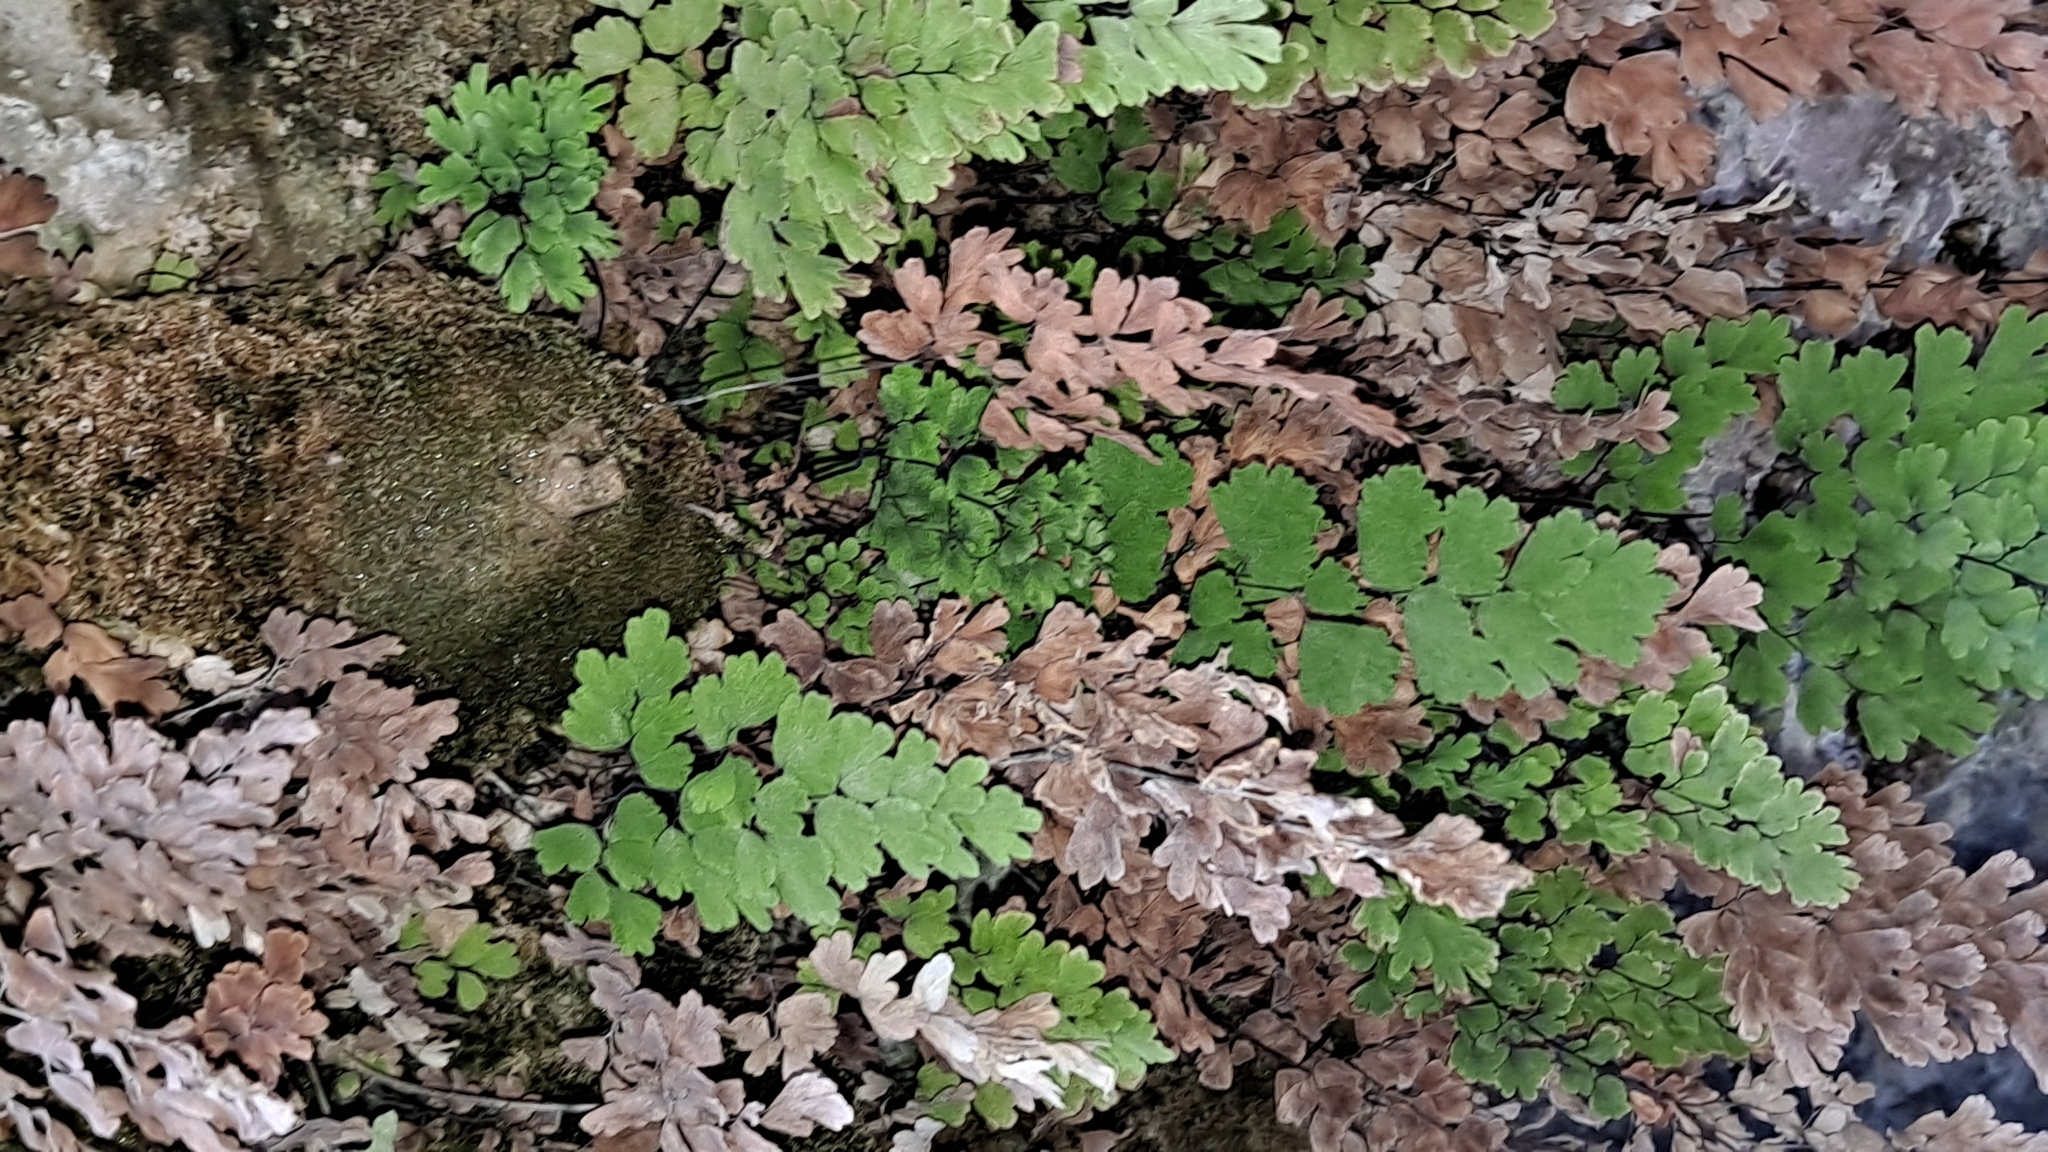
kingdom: Plantae
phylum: Tracheophyta
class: Polypodiopsida
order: Polypodiales
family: Pteridaceae
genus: Adiantum
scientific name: Adiantum capillus-veneris
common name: Maidenhair fern
